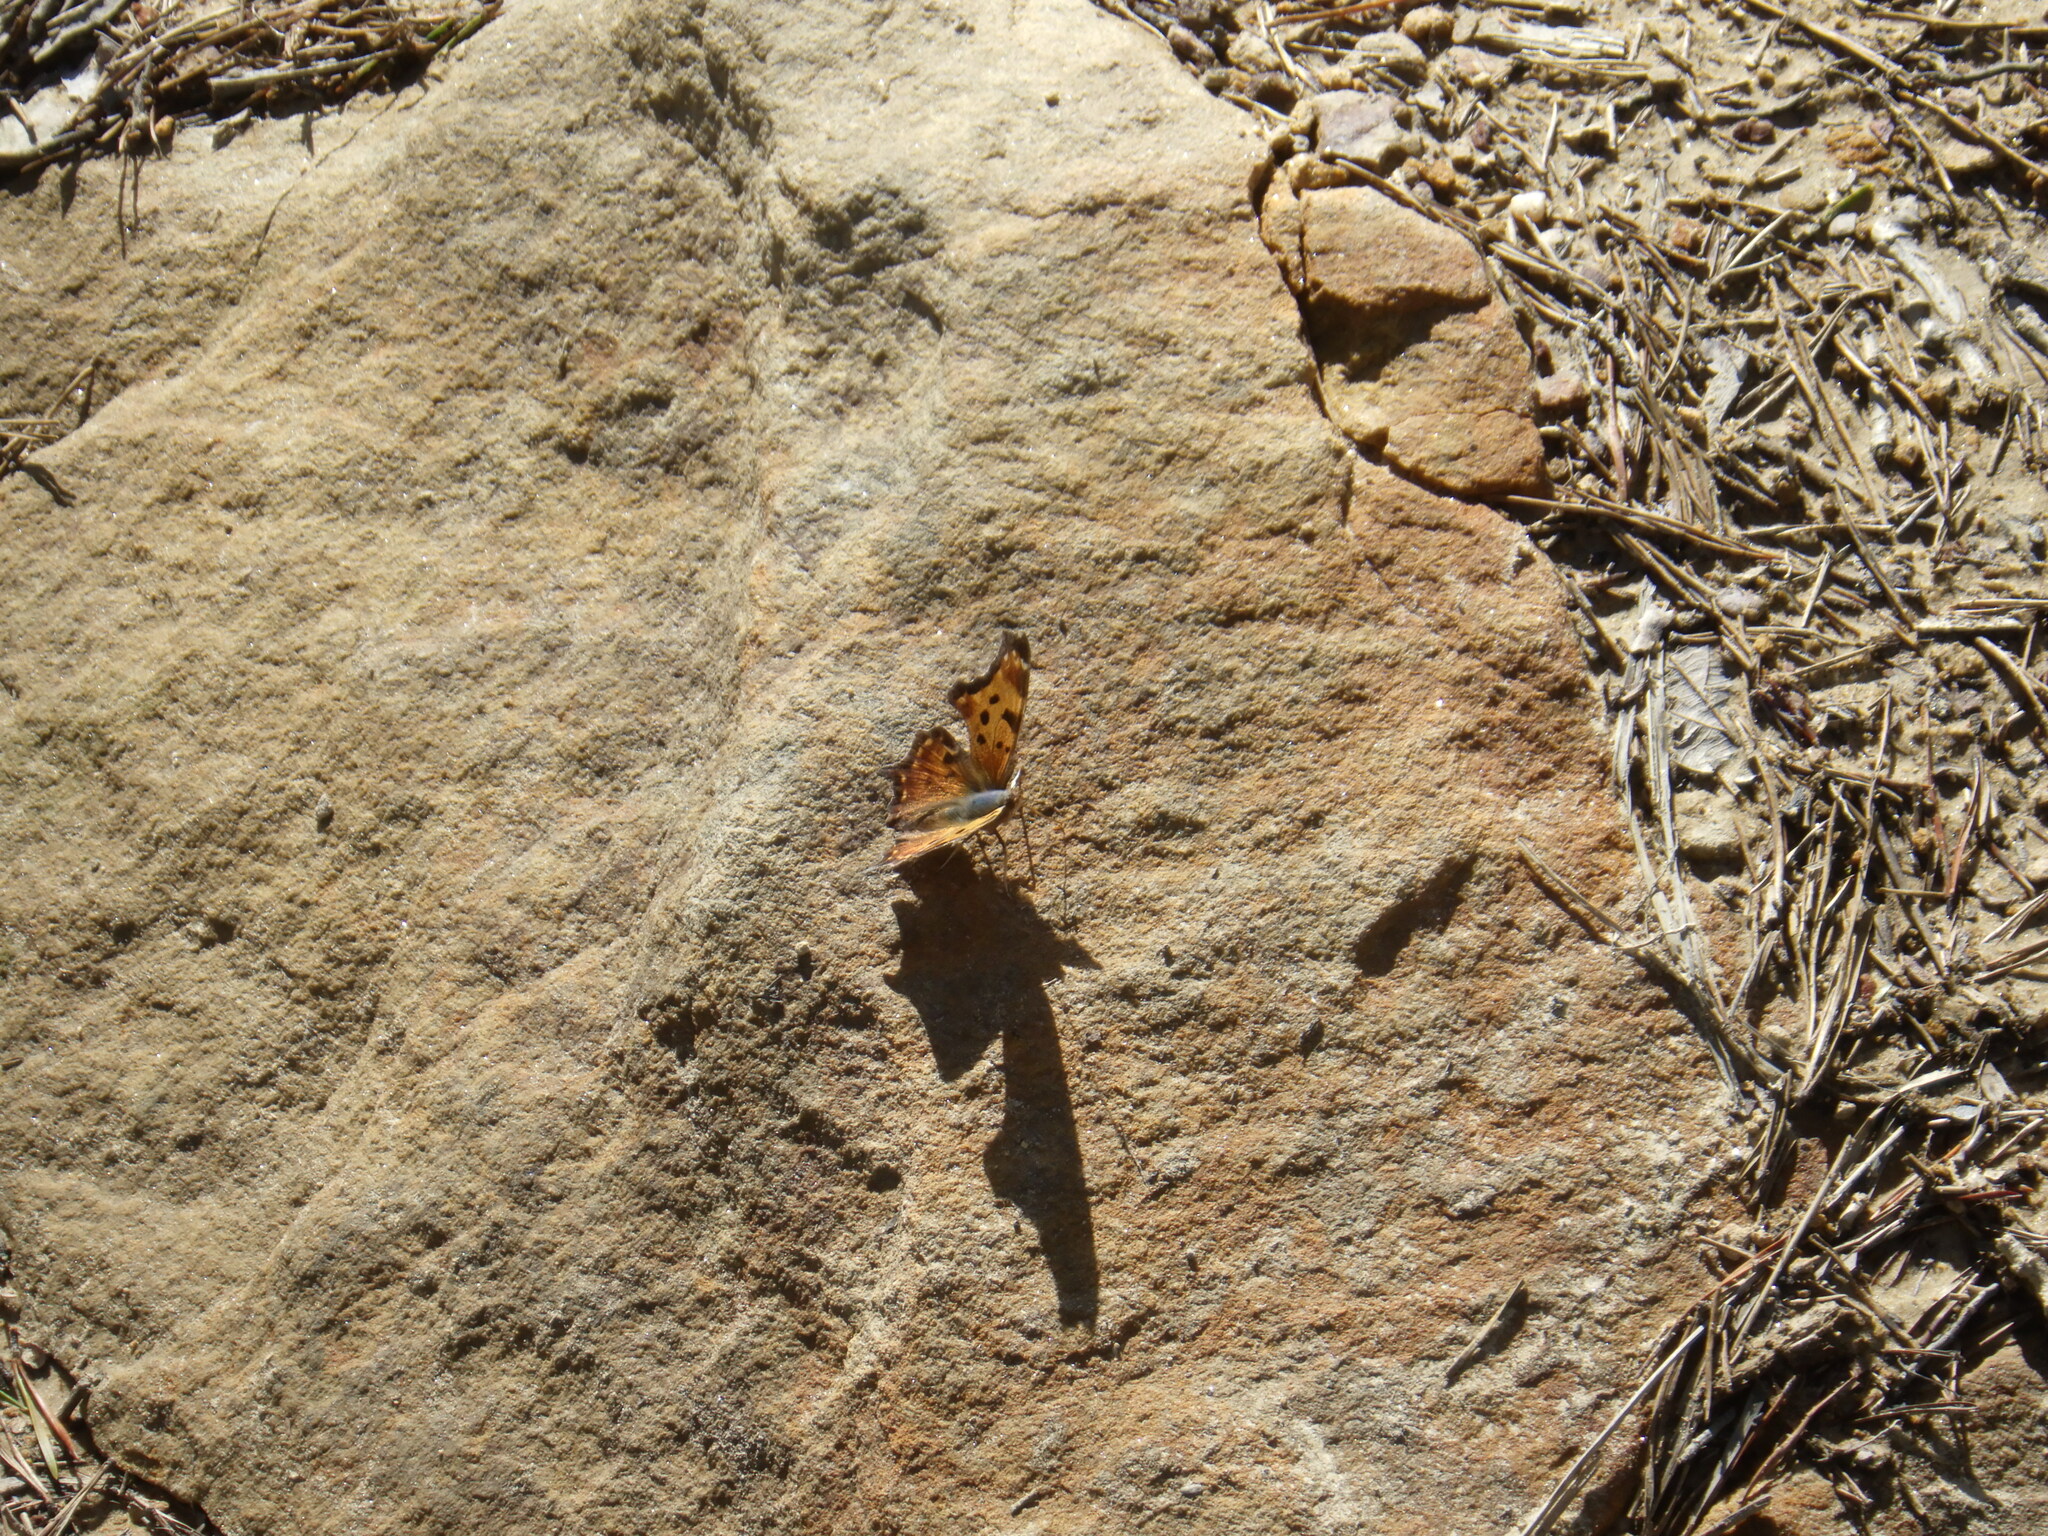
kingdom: Animalia
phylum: Arthropoda
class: Insecta
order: Lepidoptera
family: Nymphalidae
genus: Polygonia
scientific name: Polygonia comma
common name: Eastern comma
